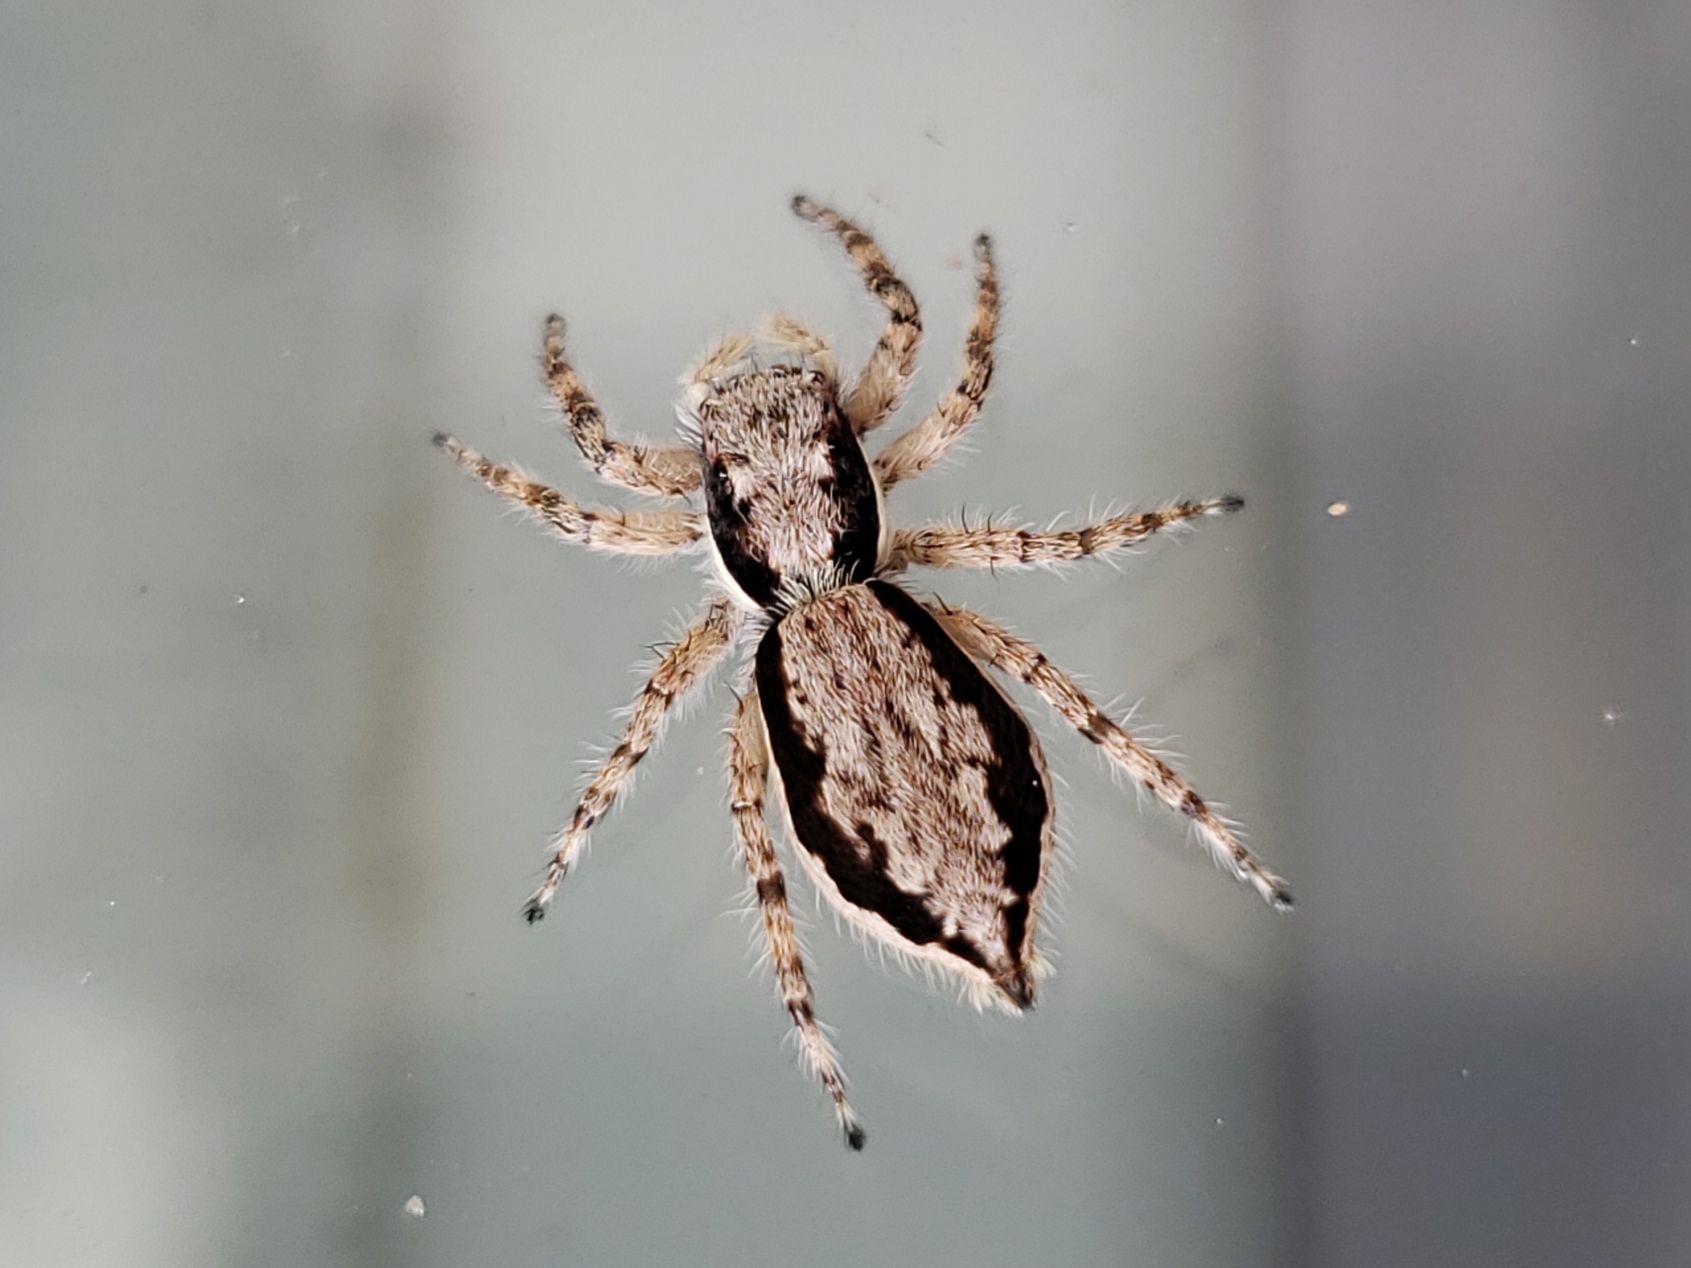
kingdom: Animalia
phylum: Arthropoda
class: Arachnida
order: Araneae
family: Salticidae
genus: Menemerus
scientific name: Menemerus bivittatus
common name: Gray wall jumper
